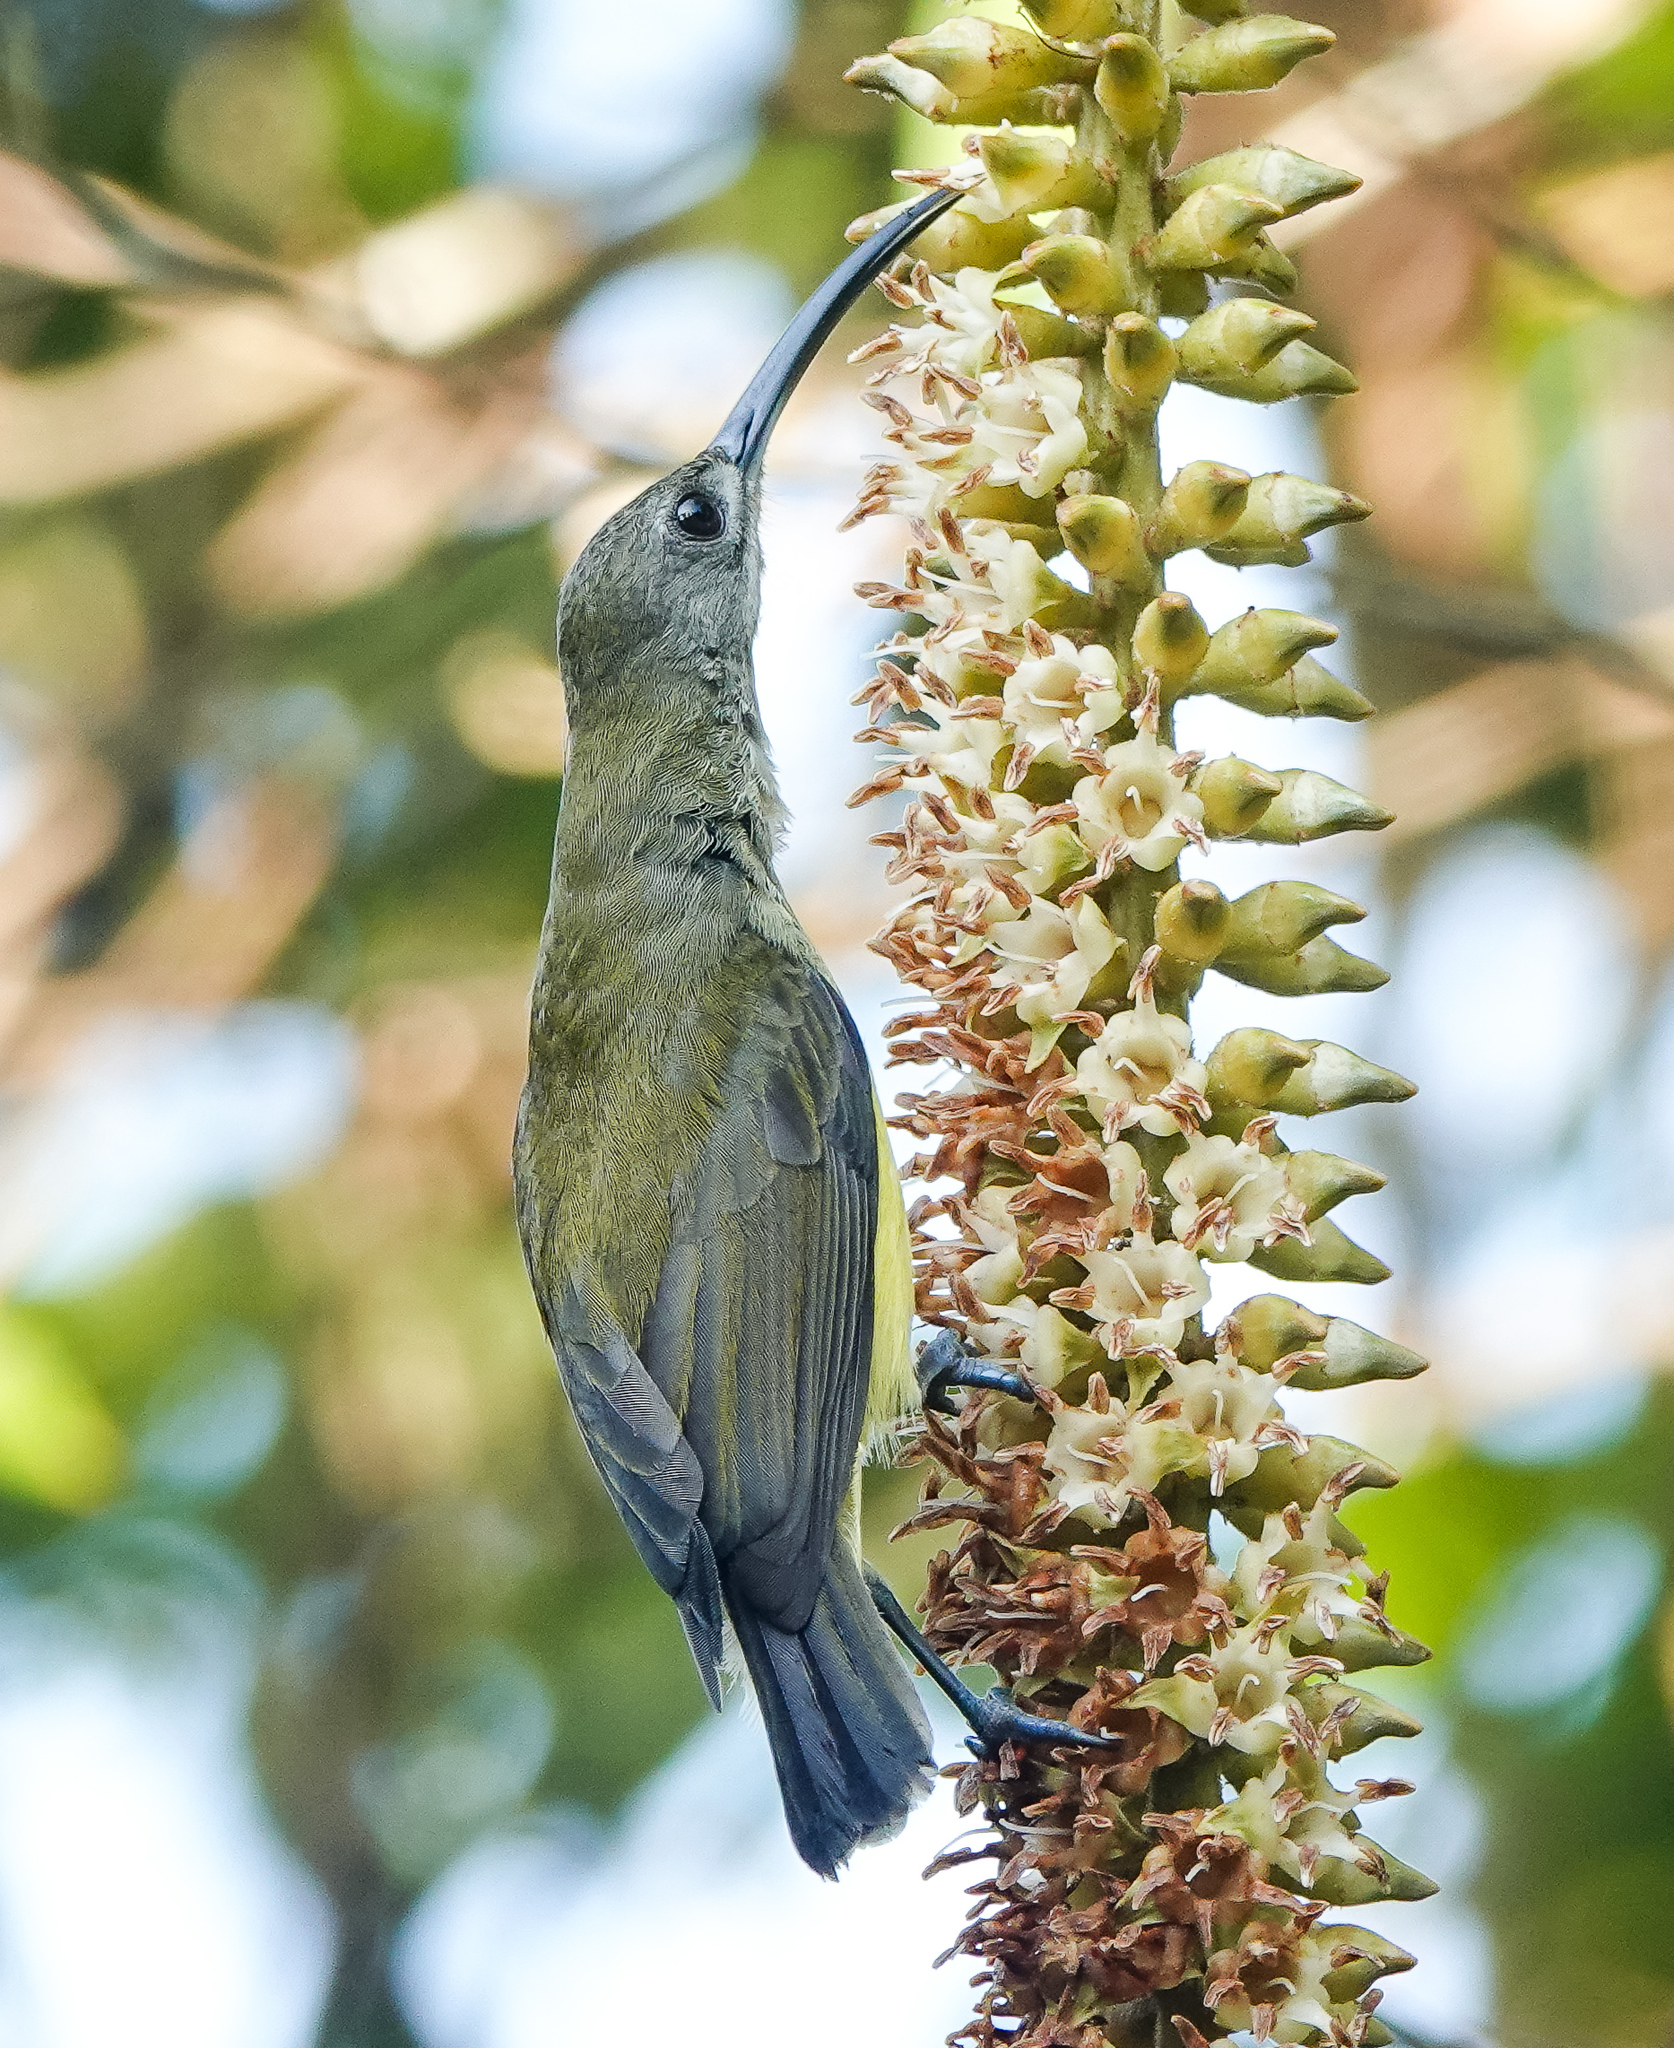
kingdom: Animalia
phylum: Chordata
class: Aves
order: Passeriformes
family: Nectariniidae
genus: Arachnothera
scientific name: Arachnothera longirostra
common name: Little spiderhunter
